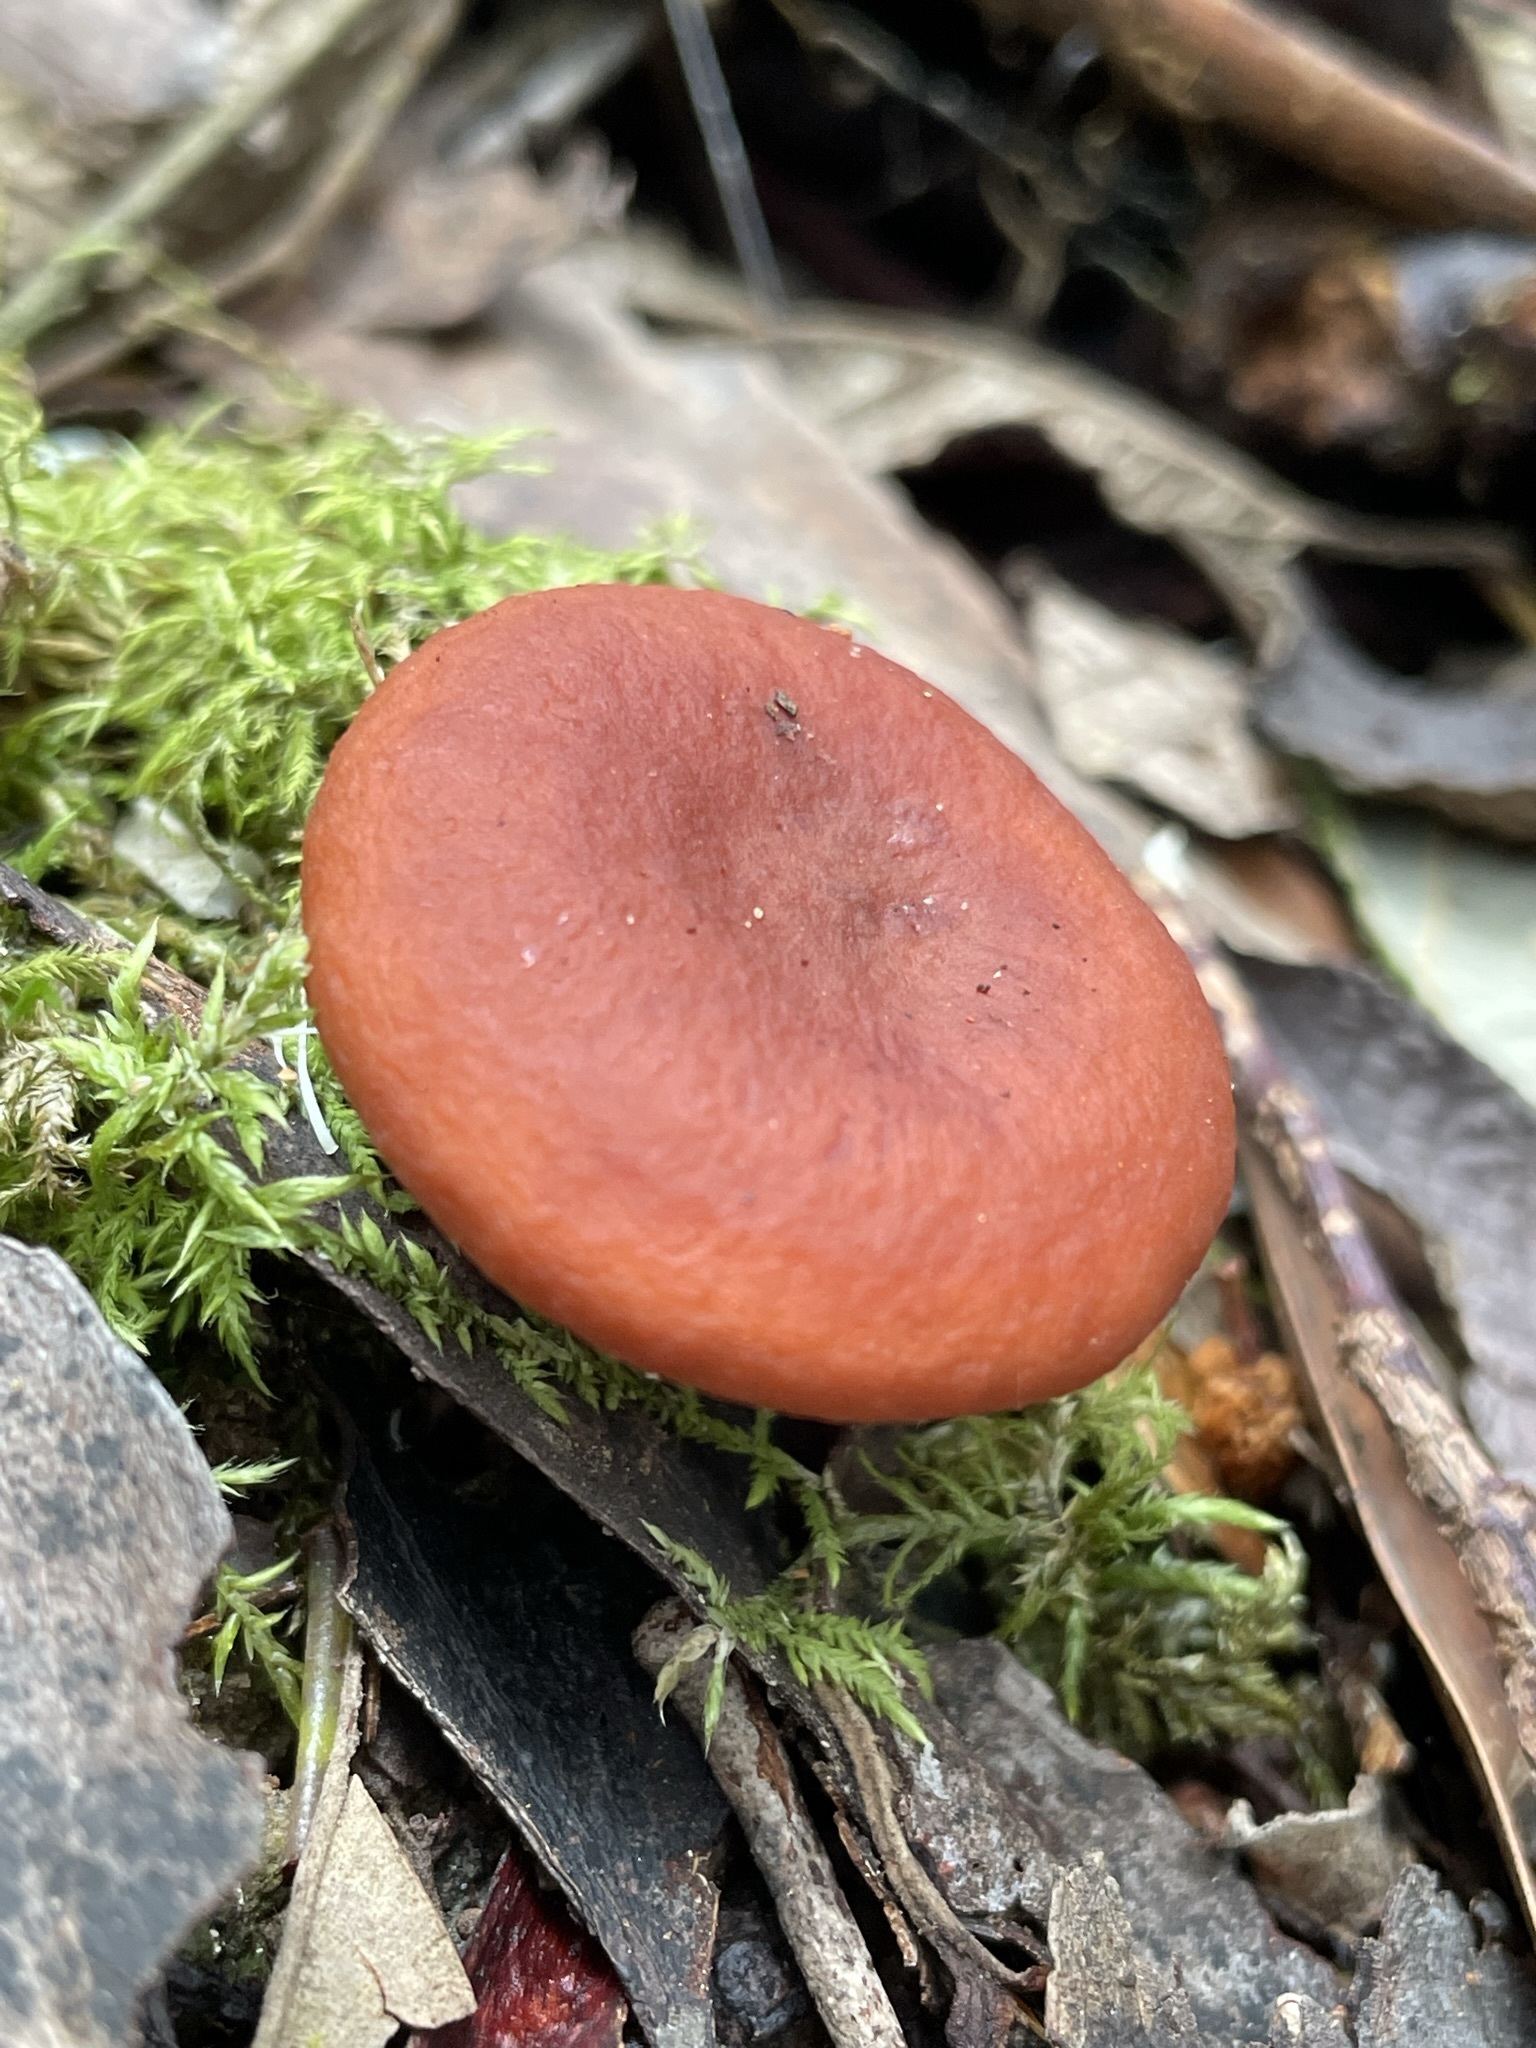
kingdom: Fungi
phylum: Basidiomycota
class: Agaricomycetes
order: Russulales
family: Russulaceae
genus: Lactarius
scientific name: Lactarius eucalypti
